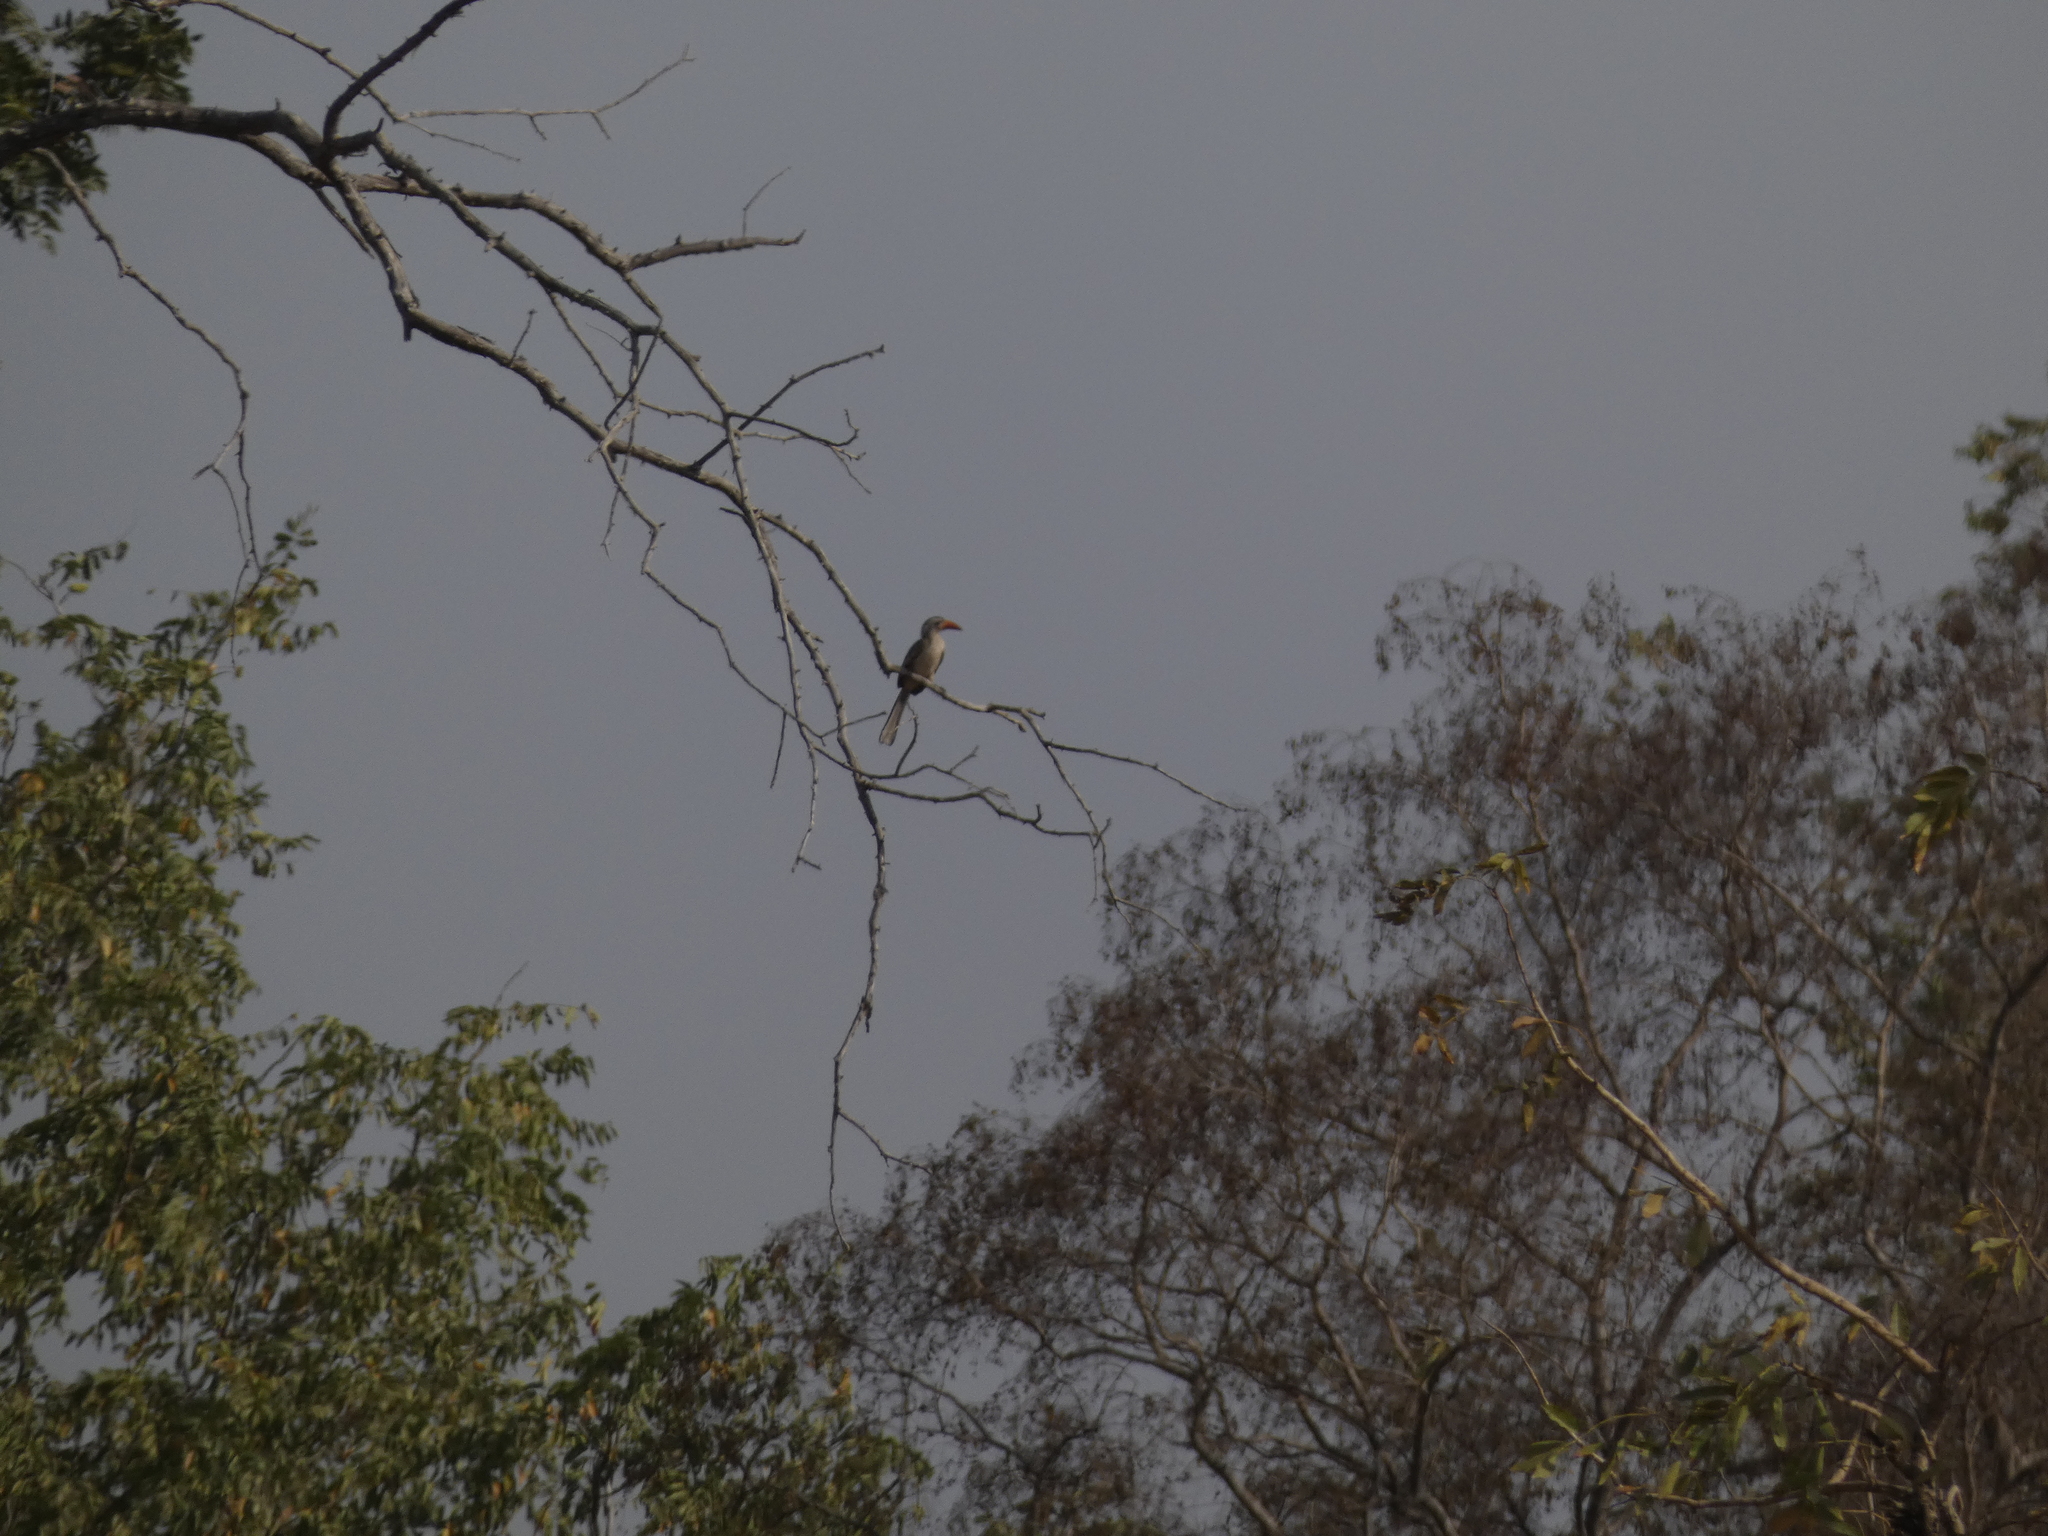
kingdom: Animalia
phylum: Chordata
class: Aves
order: Bucerotiformes
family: Bucerotidae
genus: Tockus
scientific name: Tockus erythrorhynchus
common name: Northern red-billed hornbill
